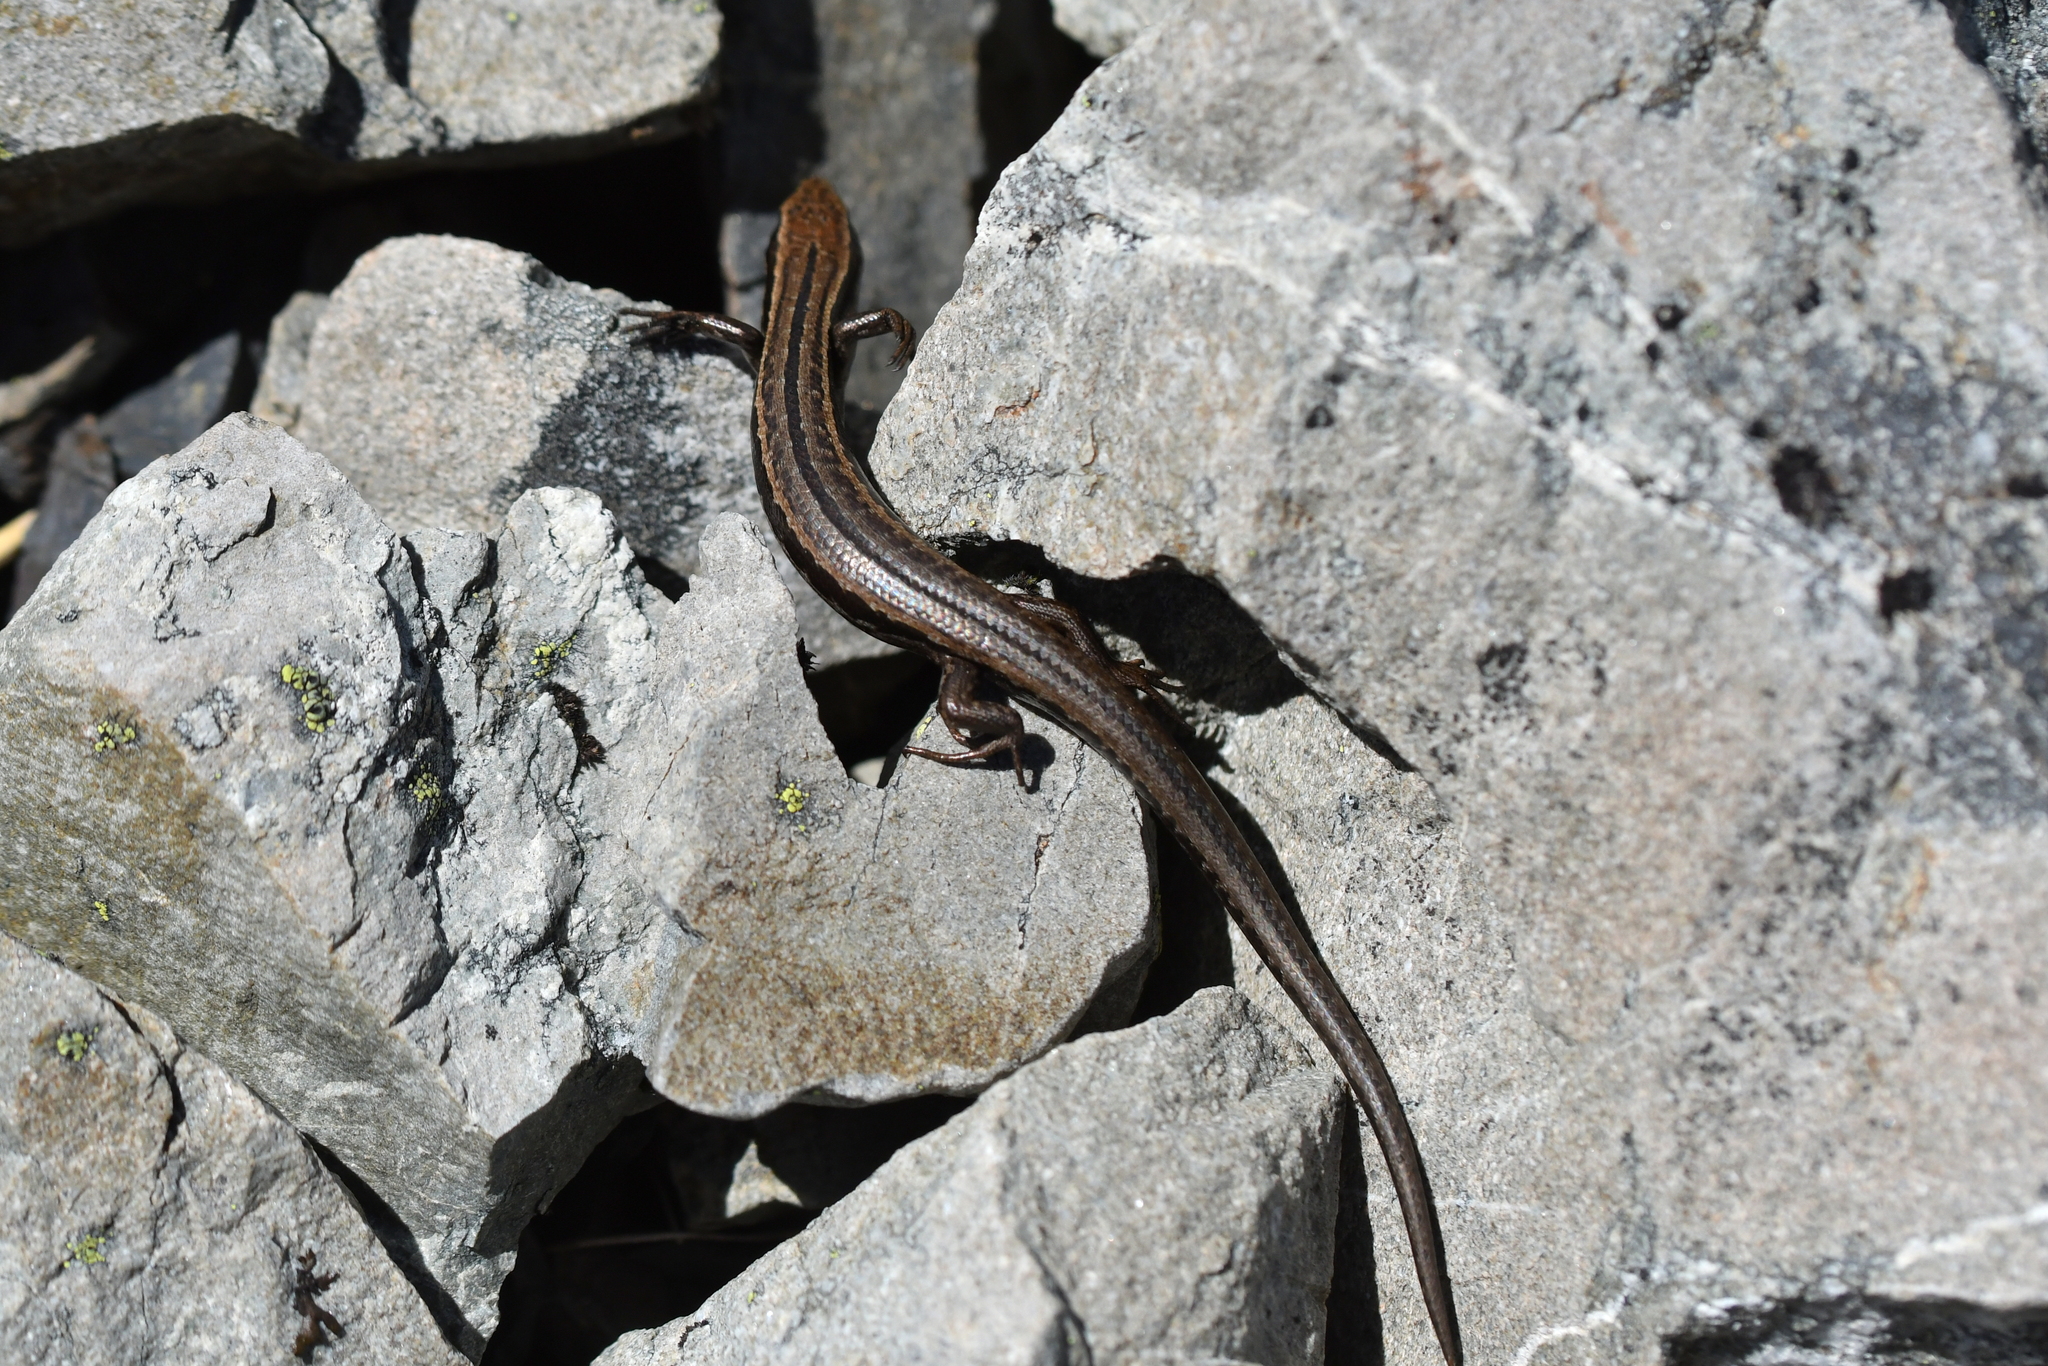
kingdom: Animalia
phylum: Chordata
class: Squamata
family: Scincidae
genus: Oligosoma
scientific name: Oligosoma polychroma
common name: Common new zealand skink
